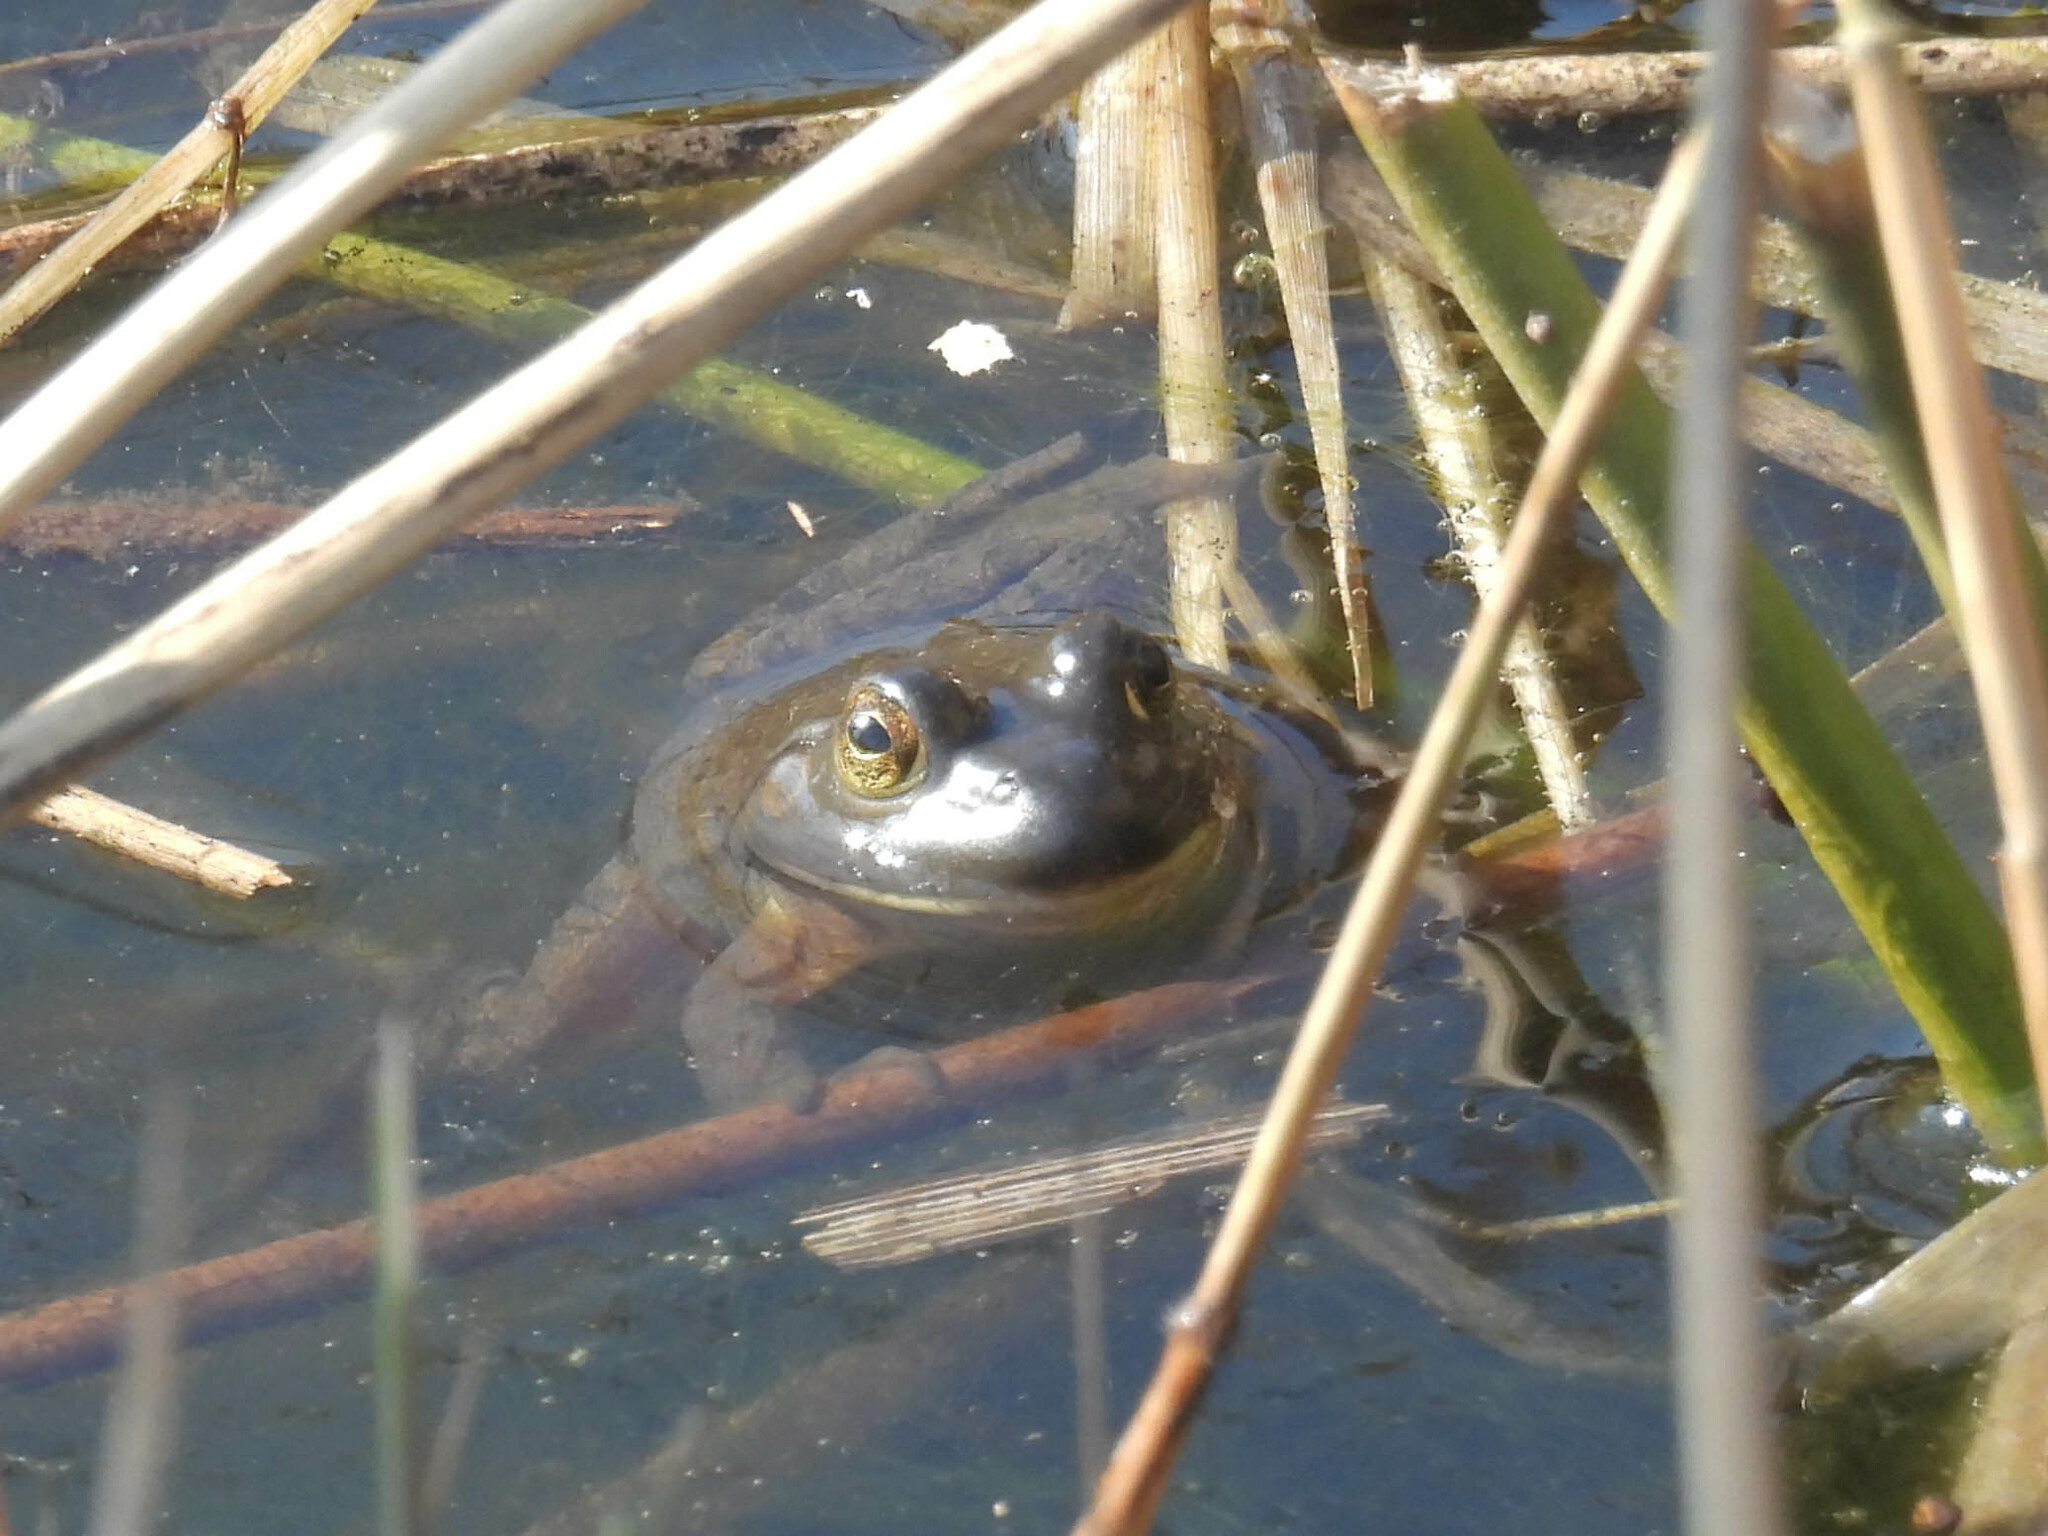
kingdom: Animalia
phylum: Chordata
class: Amphibia
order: Anura
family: Ranidae
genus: Lithobates
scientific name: Lithobates catesbeianus
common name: American bullfrog
